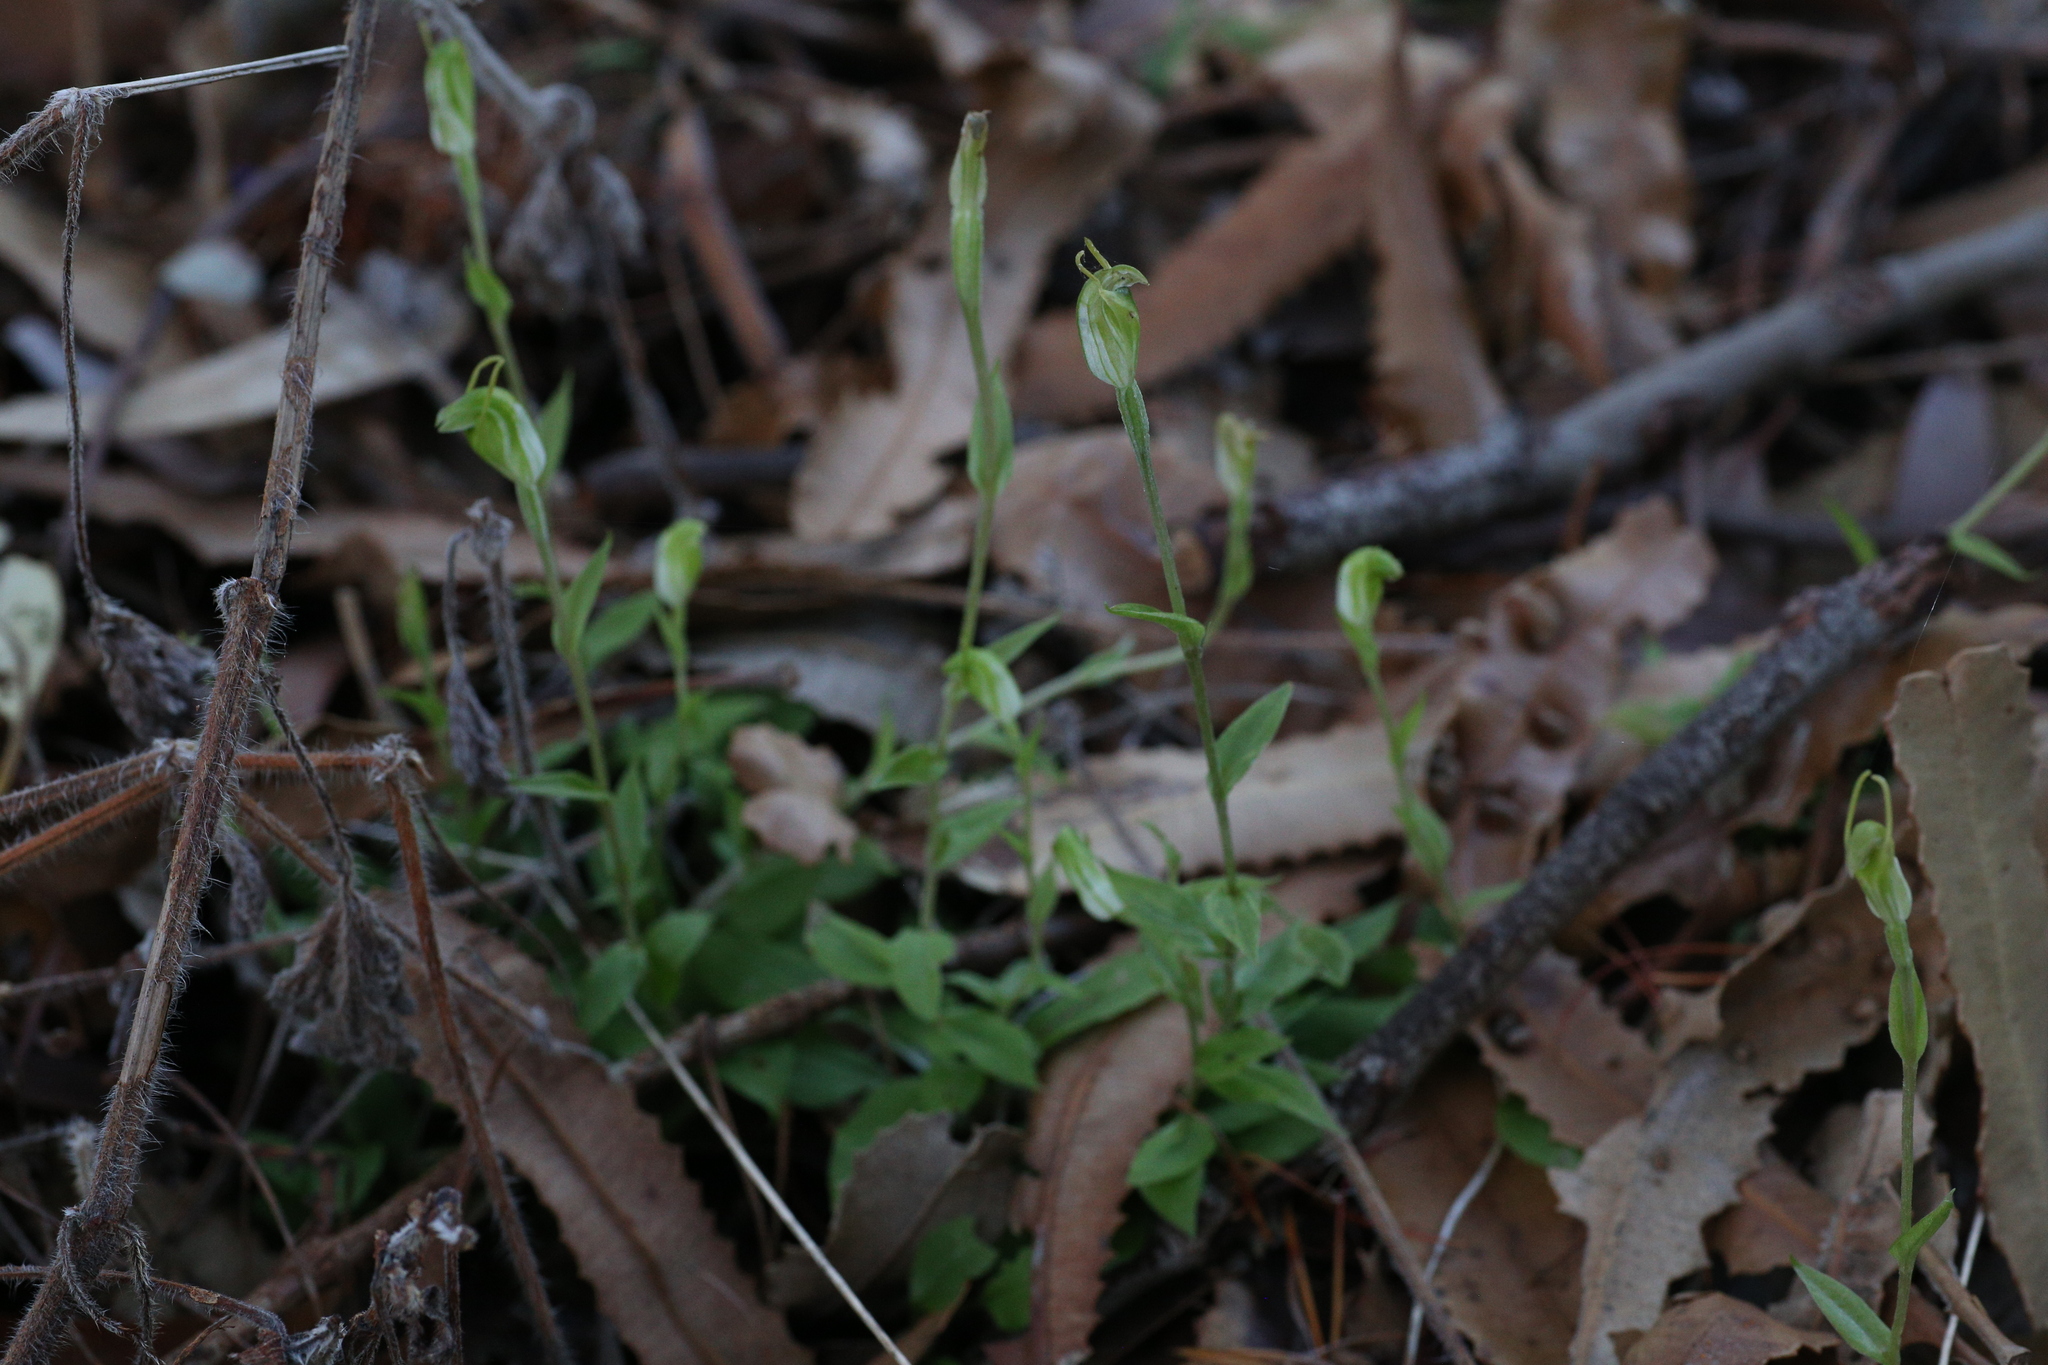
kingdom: Plantae
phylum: Tracheophyta
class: Liliopsida
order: Asparagales
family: Orchidaceae
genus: Pterostylis
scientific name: Pterostylis ectypha
